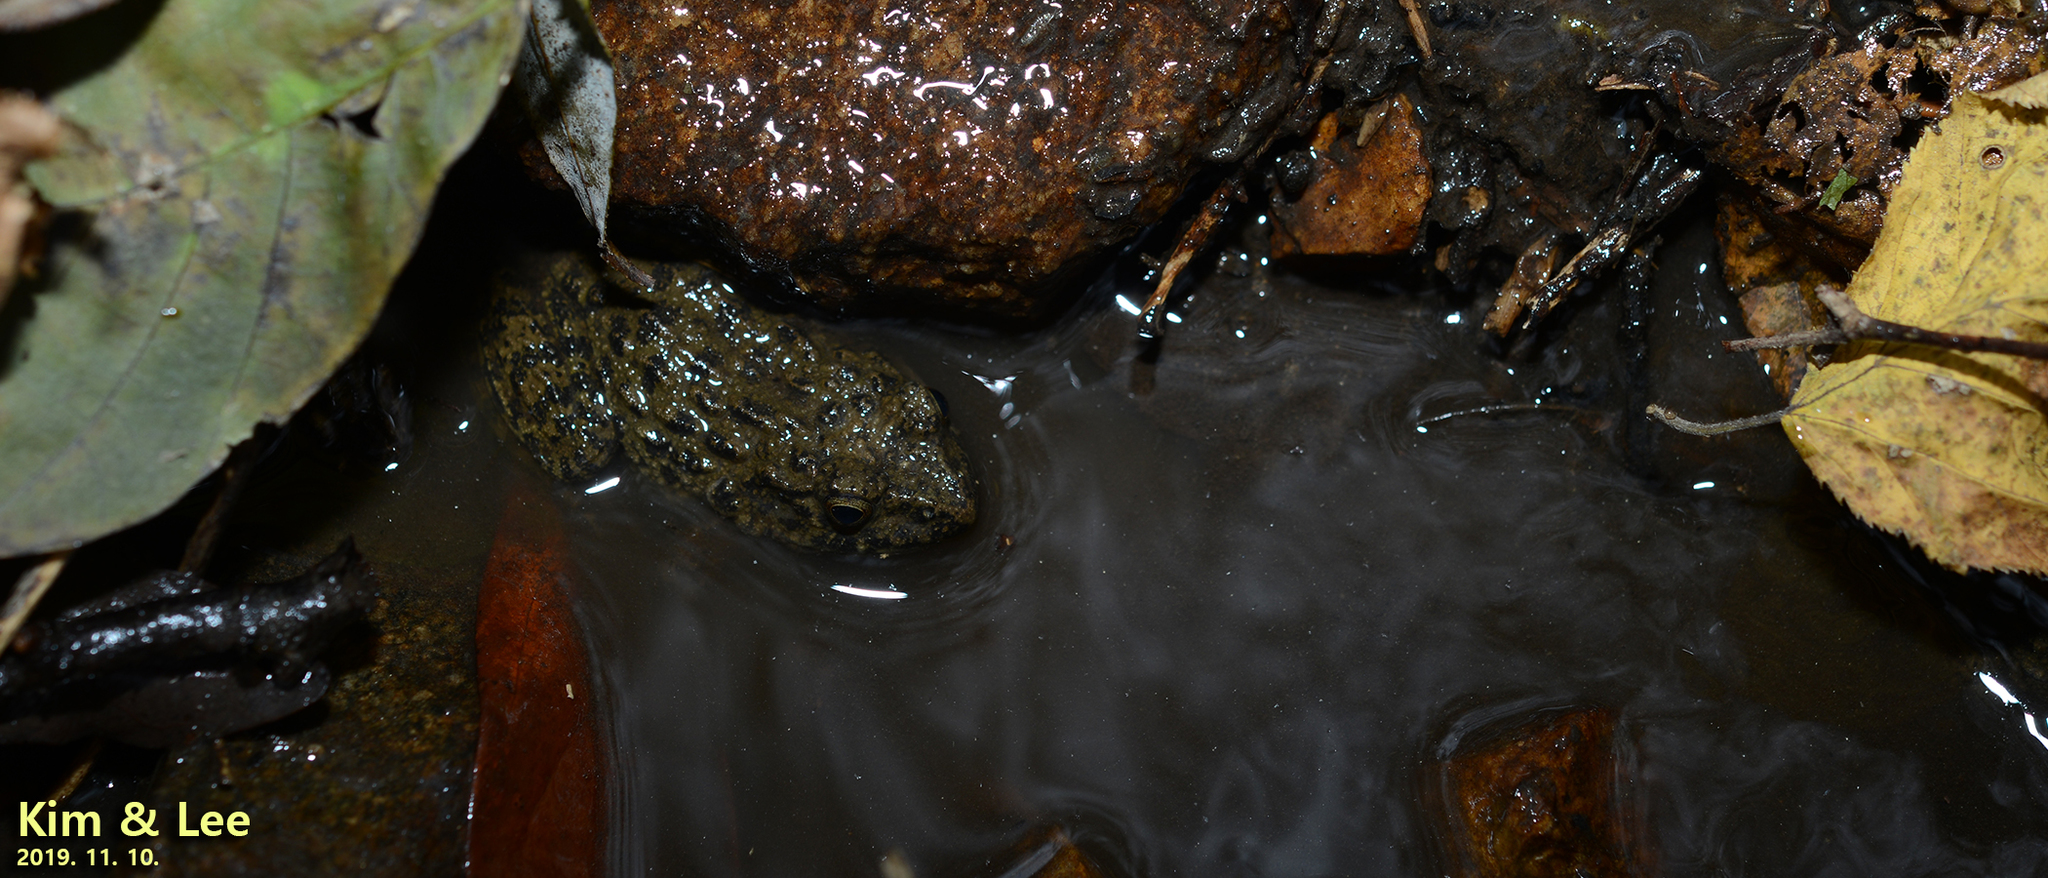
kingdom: Animalia
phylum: Chordata
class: Amphibia
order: Anura
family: Ranidae
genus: Glandirana
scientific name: Glandirana emeljanovi
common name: Northeast china rough-skinned frog
